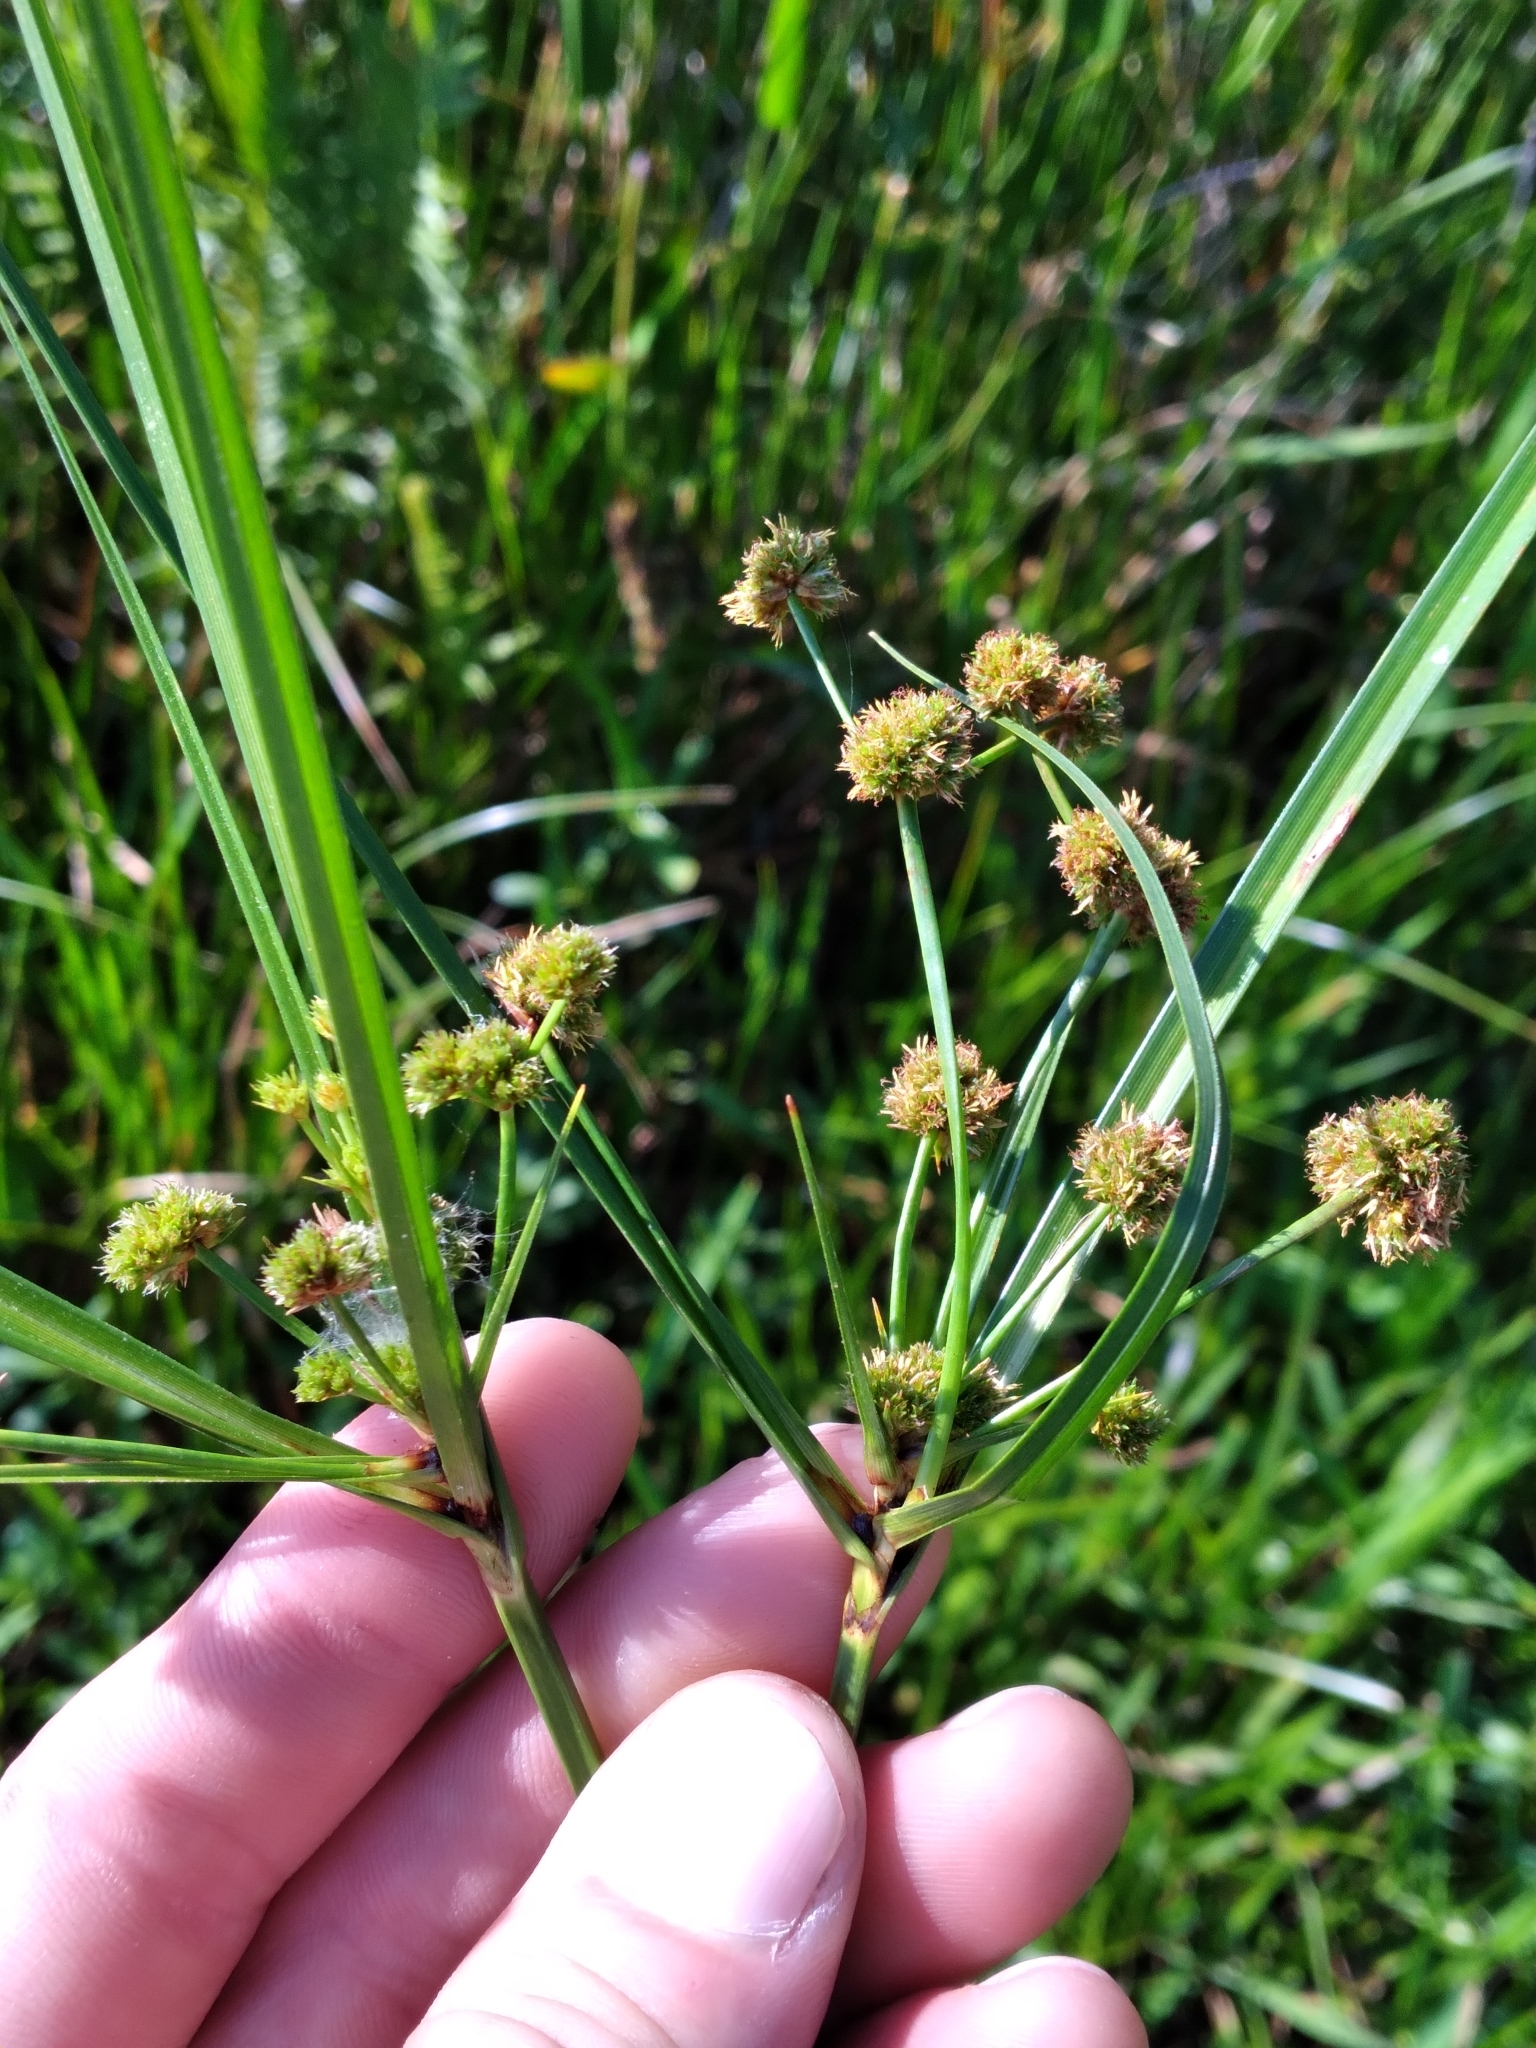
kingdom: Plantae
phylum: Tracheophyta
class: Liliopsida
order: Poales
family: Cyperaceae
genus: Cyperus
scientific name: Cyperus blepharoleptos
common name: Cuban bulrush
